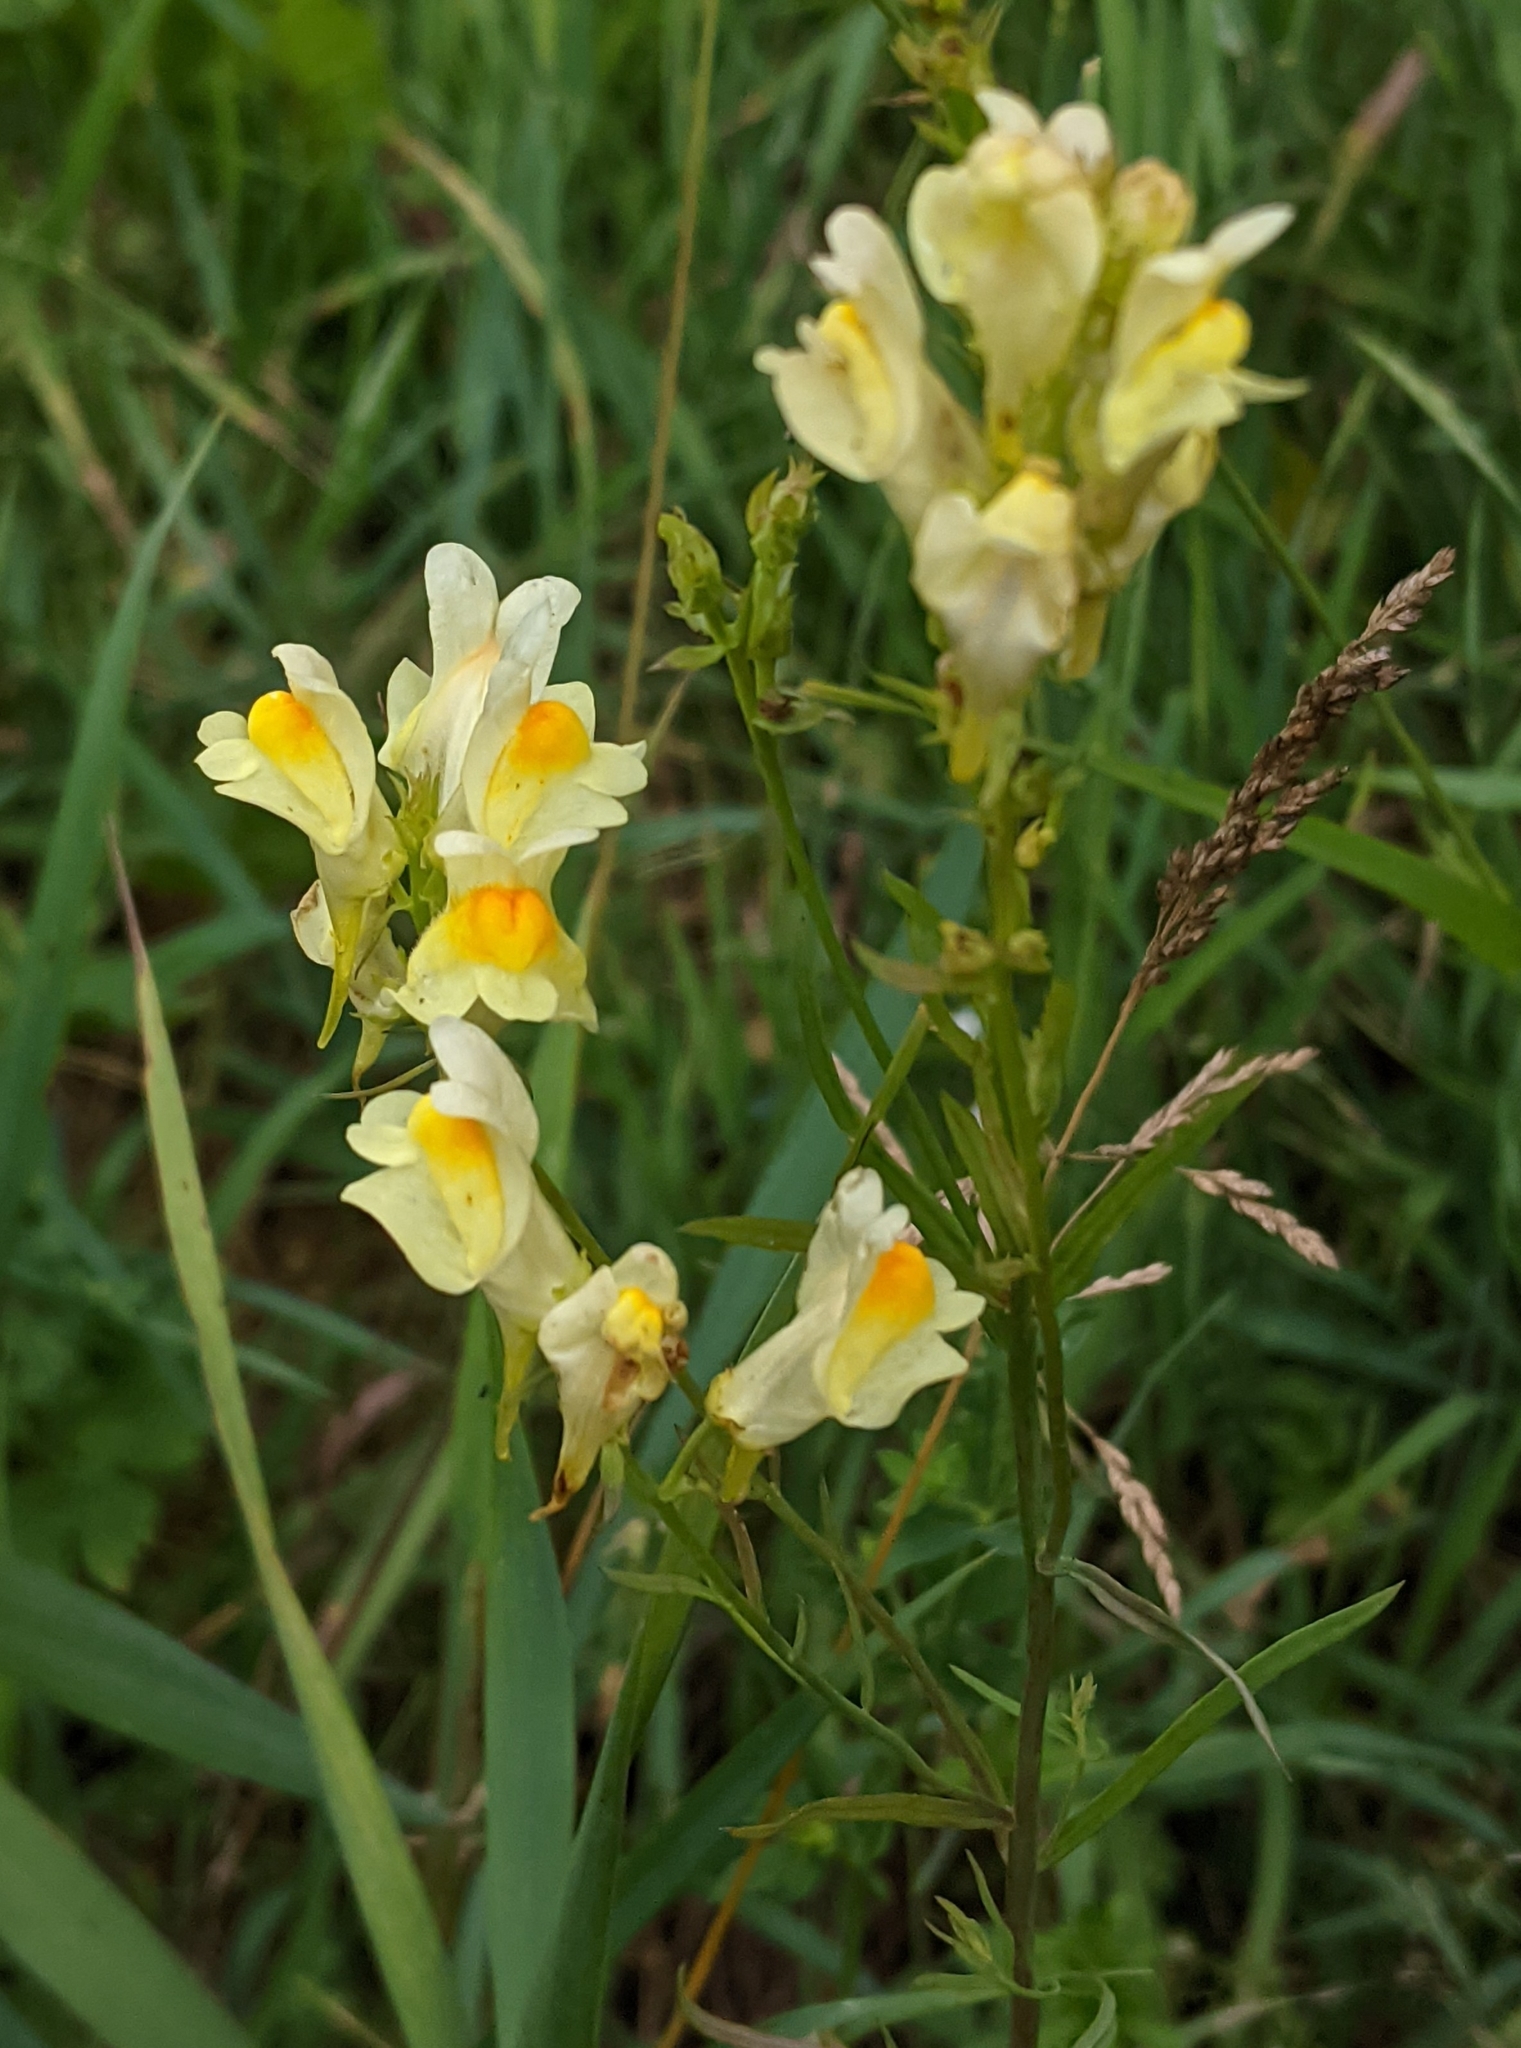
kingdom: Plantae
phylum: Tracheophyta
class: Magnoliopsida
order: Lamiales
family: Plantaginaceae
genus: Linaria
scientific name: Linaria vulgaris
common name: Butter and eggs
